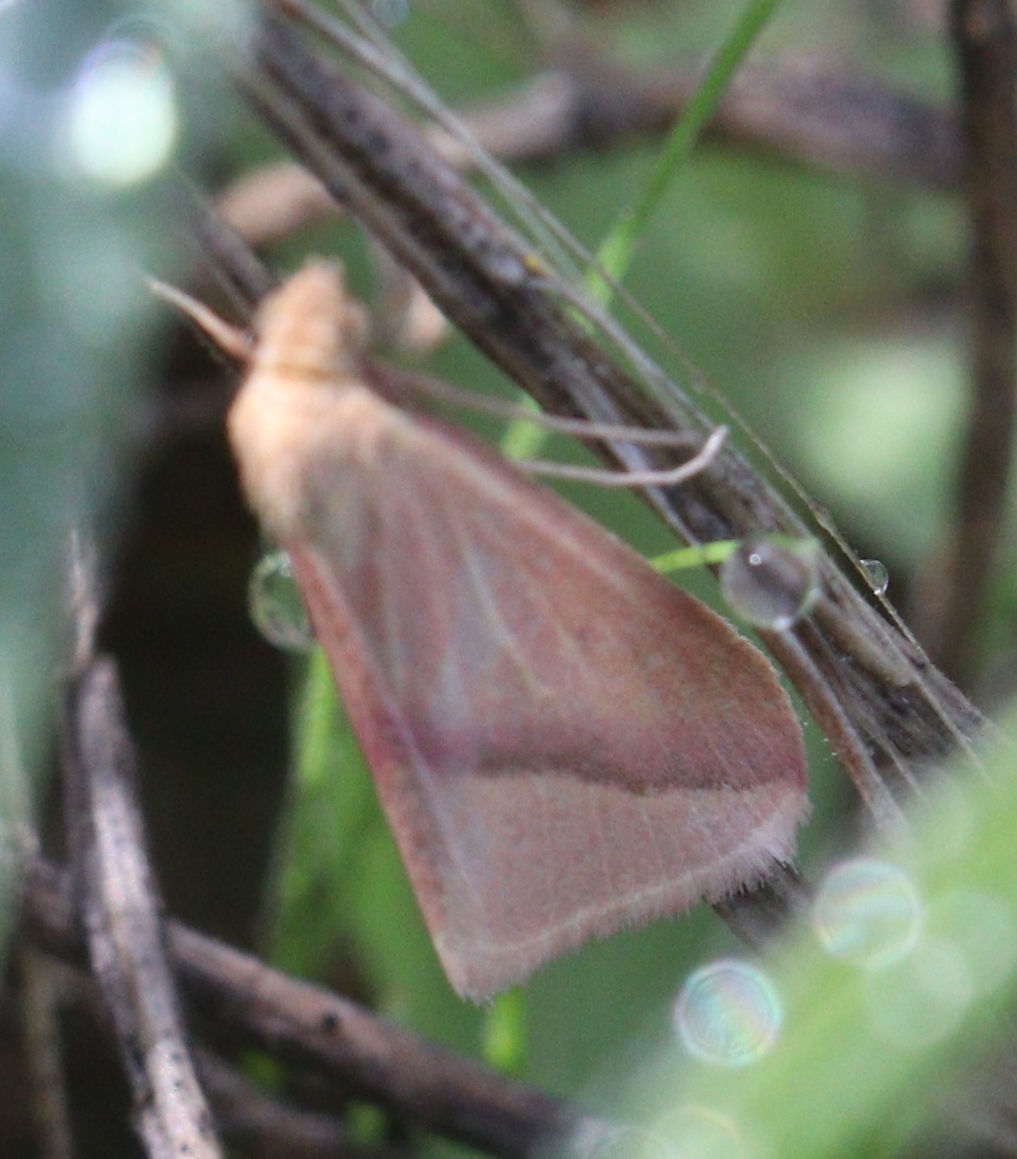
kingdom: Animalia
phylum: Arthropoda
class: Insecta
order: Lepidoptera
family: Geometridae
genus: Rhodometra
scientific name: Rhodometra sacraria
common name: Vestal
